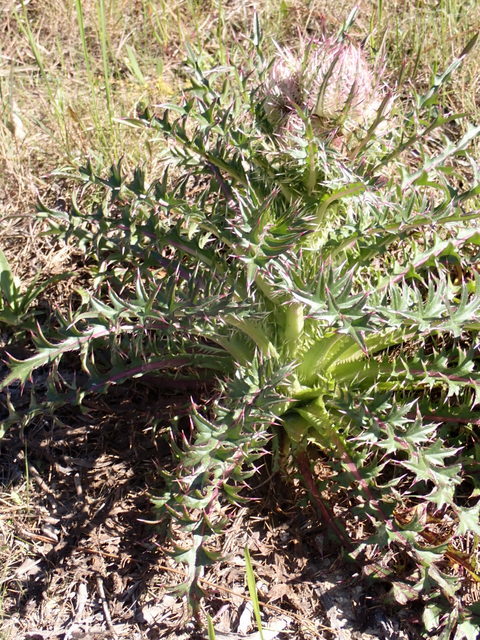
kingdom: Plantae
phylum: Tracheophyta
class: Magnoliopsida
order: Asterales
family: Asteraceae
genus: Cirsium
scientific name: Cirsium horridulum
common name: Bristly thistle
